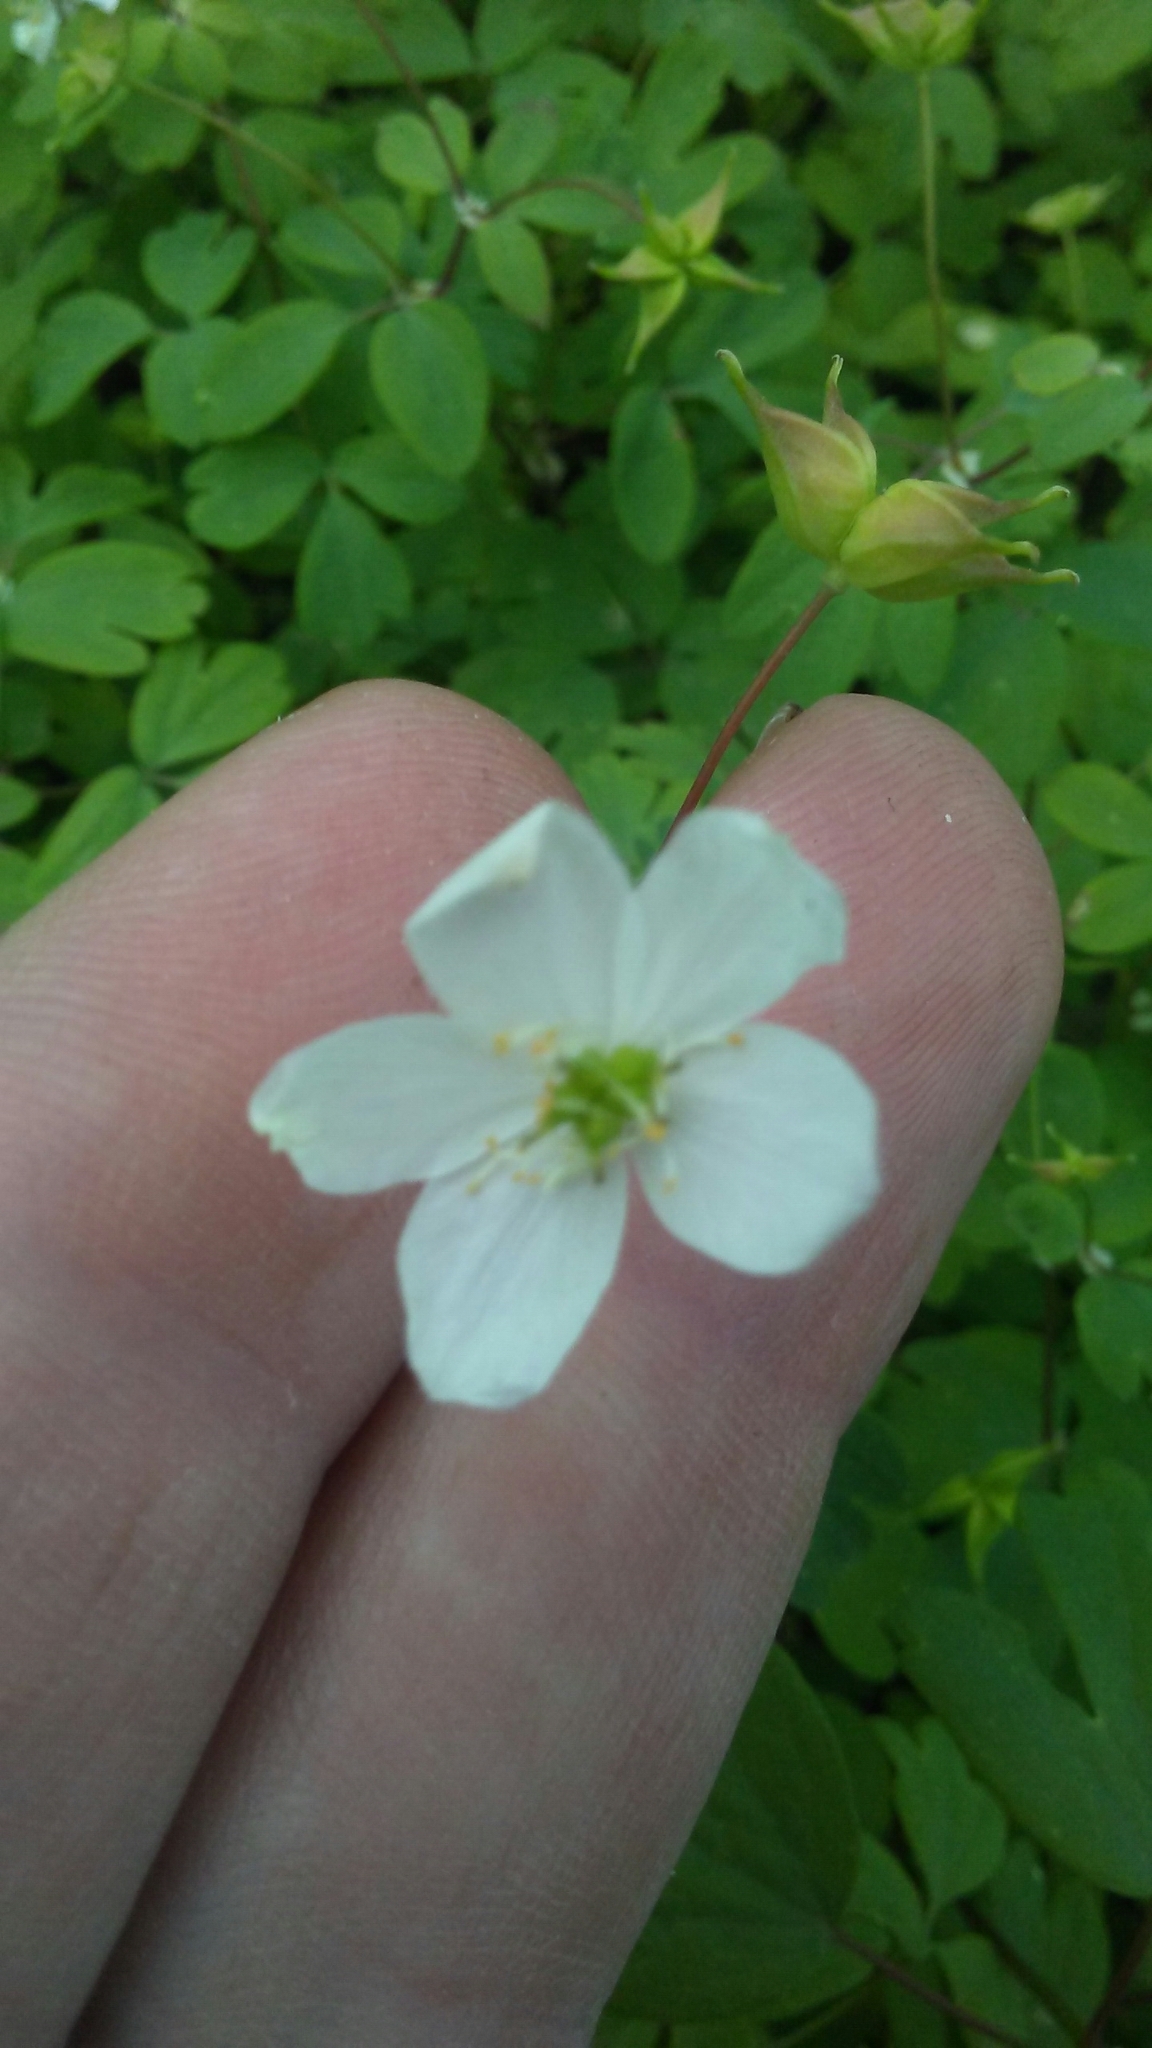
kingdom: Plantae
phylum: Tracheophyta
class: Magnoliopsida
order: Ranunculales
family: Ranunculaceae
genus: Enemion
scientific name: Enemion biternatum
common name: Eastern false rue-anemone
